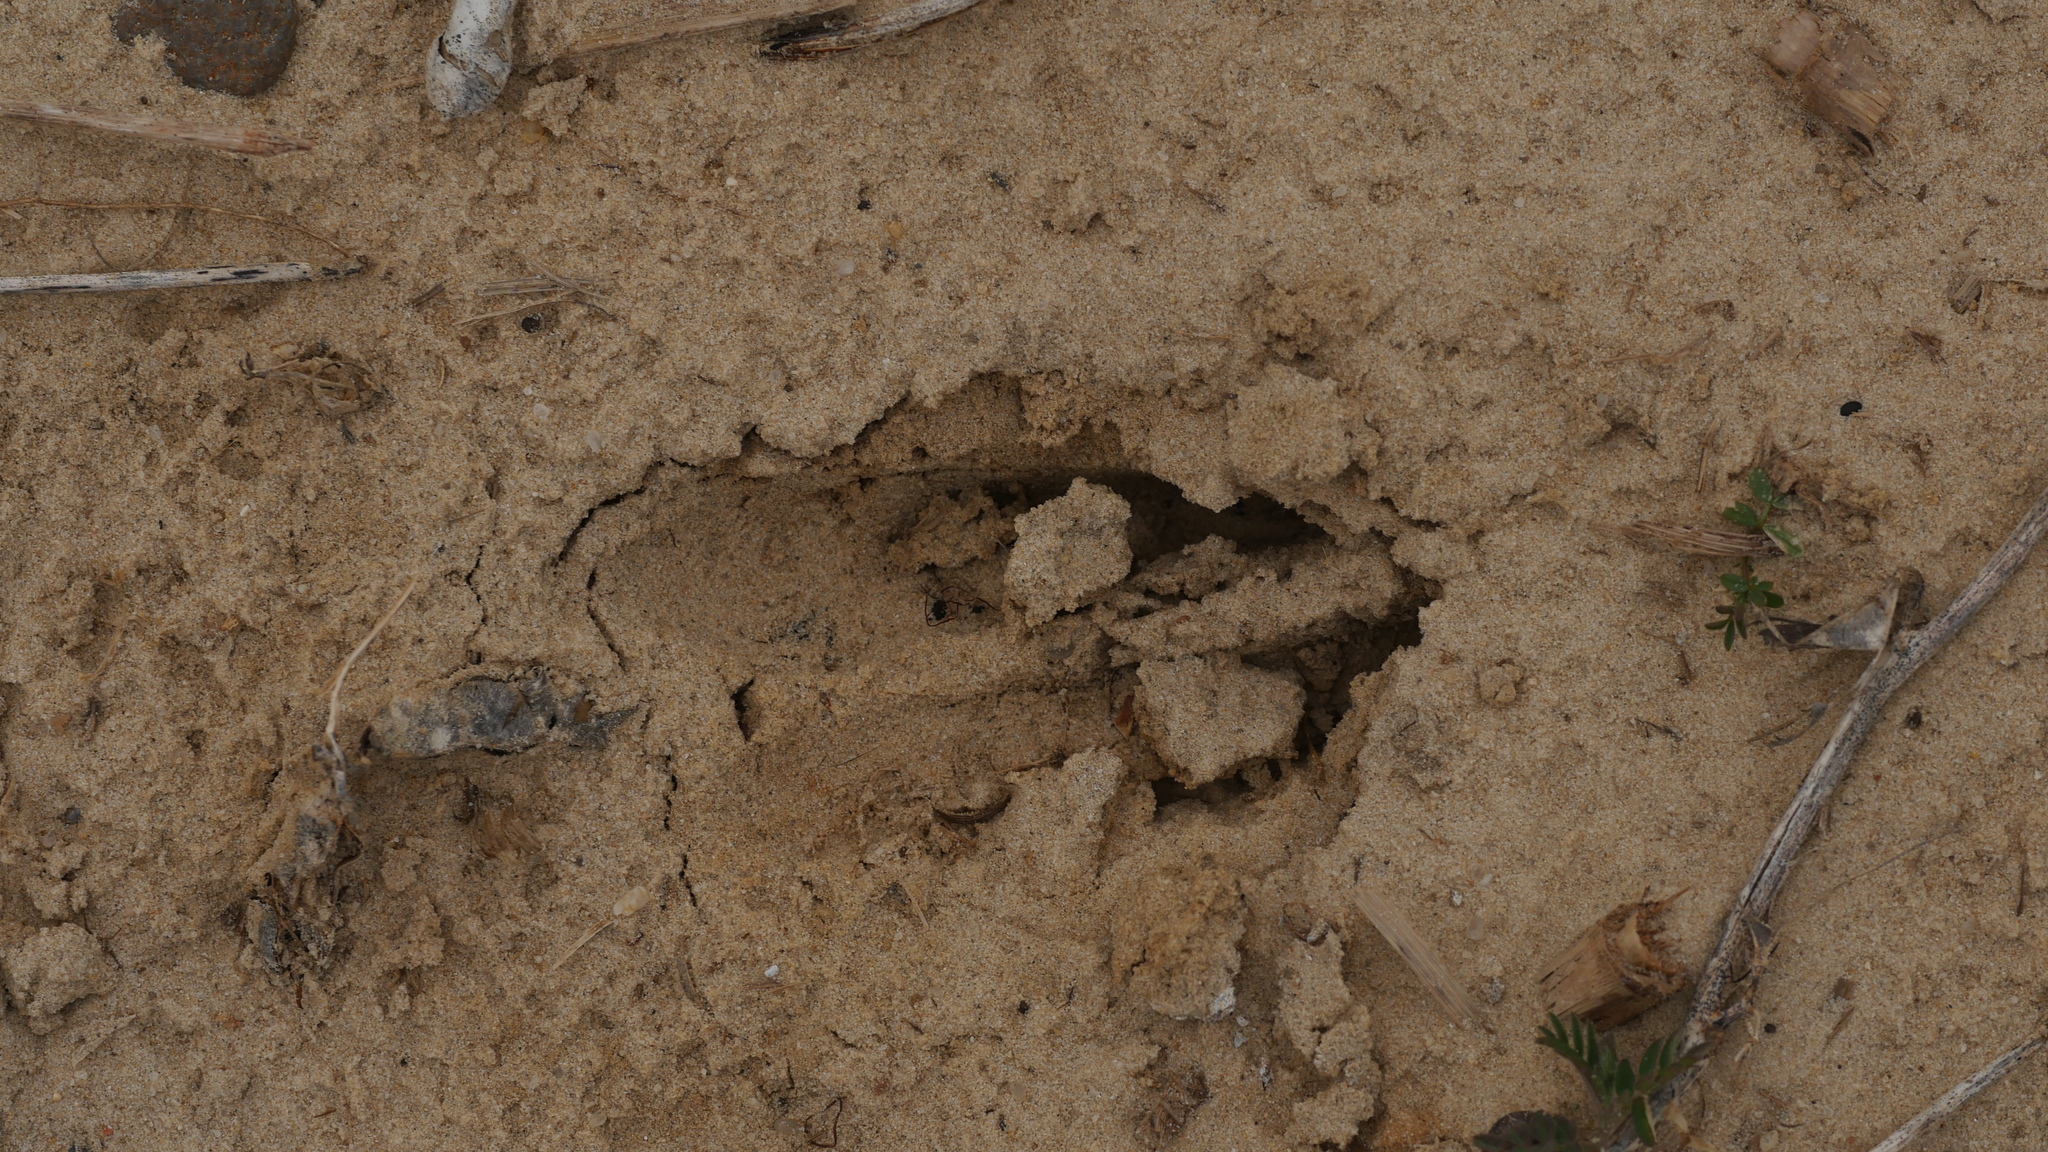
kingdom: Animalia
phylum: Chordata
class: Mammalia
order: Artiodactyla
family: Cervidae
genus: Odocoileus
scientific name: Odocoileus virginianus
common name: White-tailed deer
